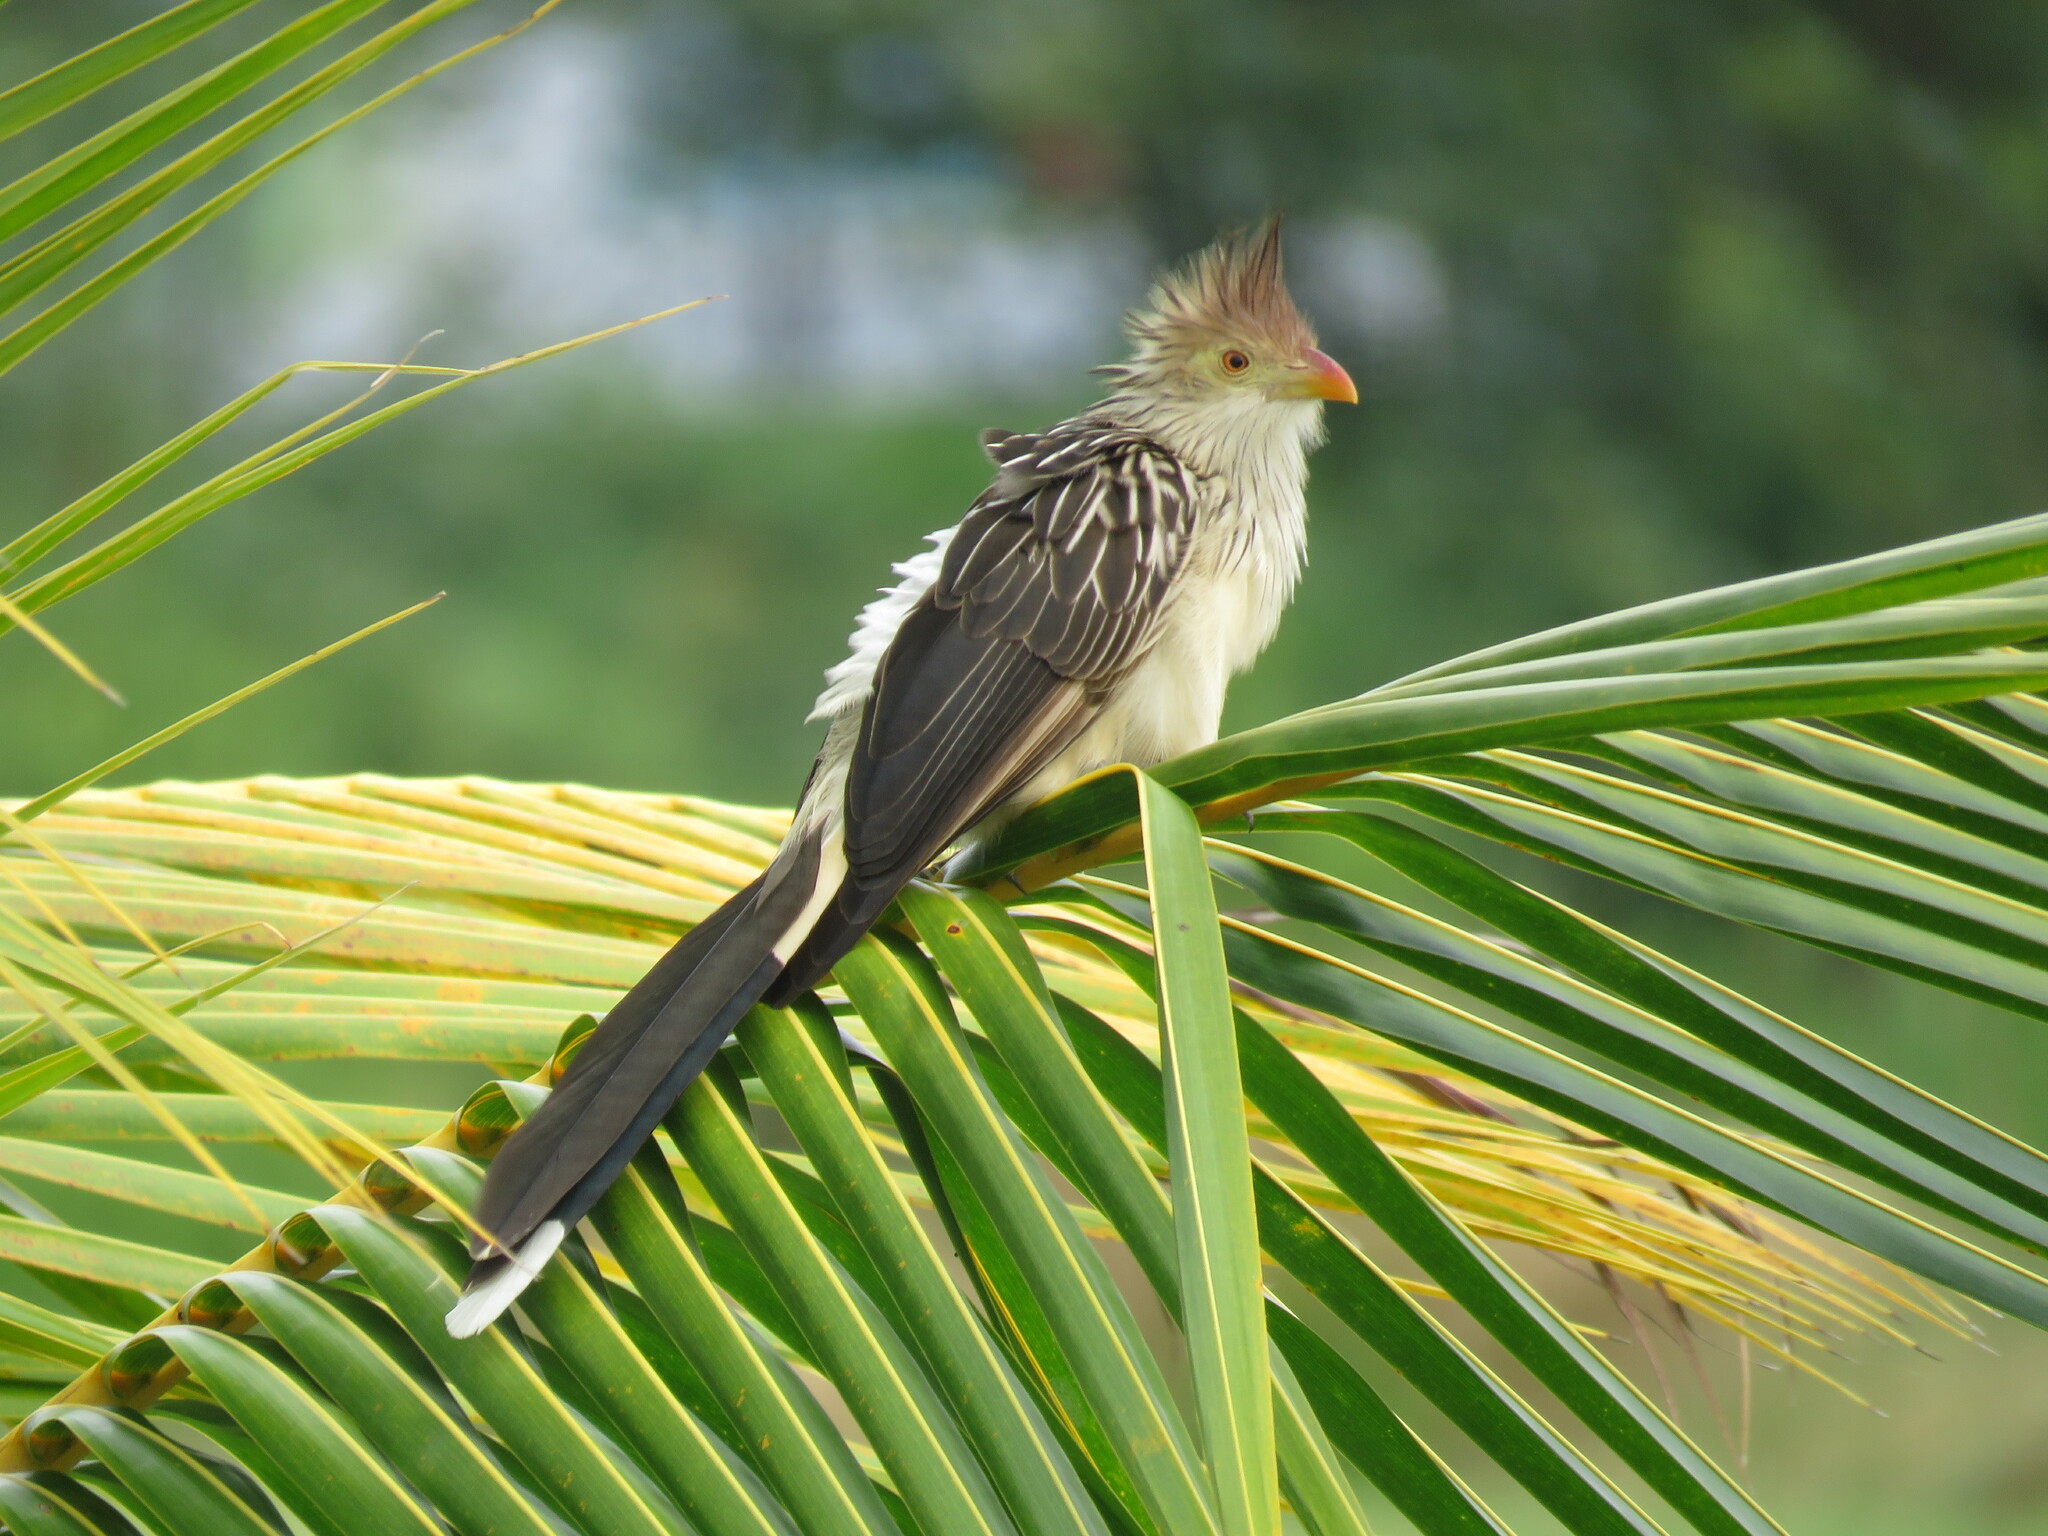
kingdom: Animalia
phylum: Chordata
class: Aves
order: Cuculiformes
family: Cuculidae
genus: Guira
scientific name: Guira guira
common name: Guira cuckoo
